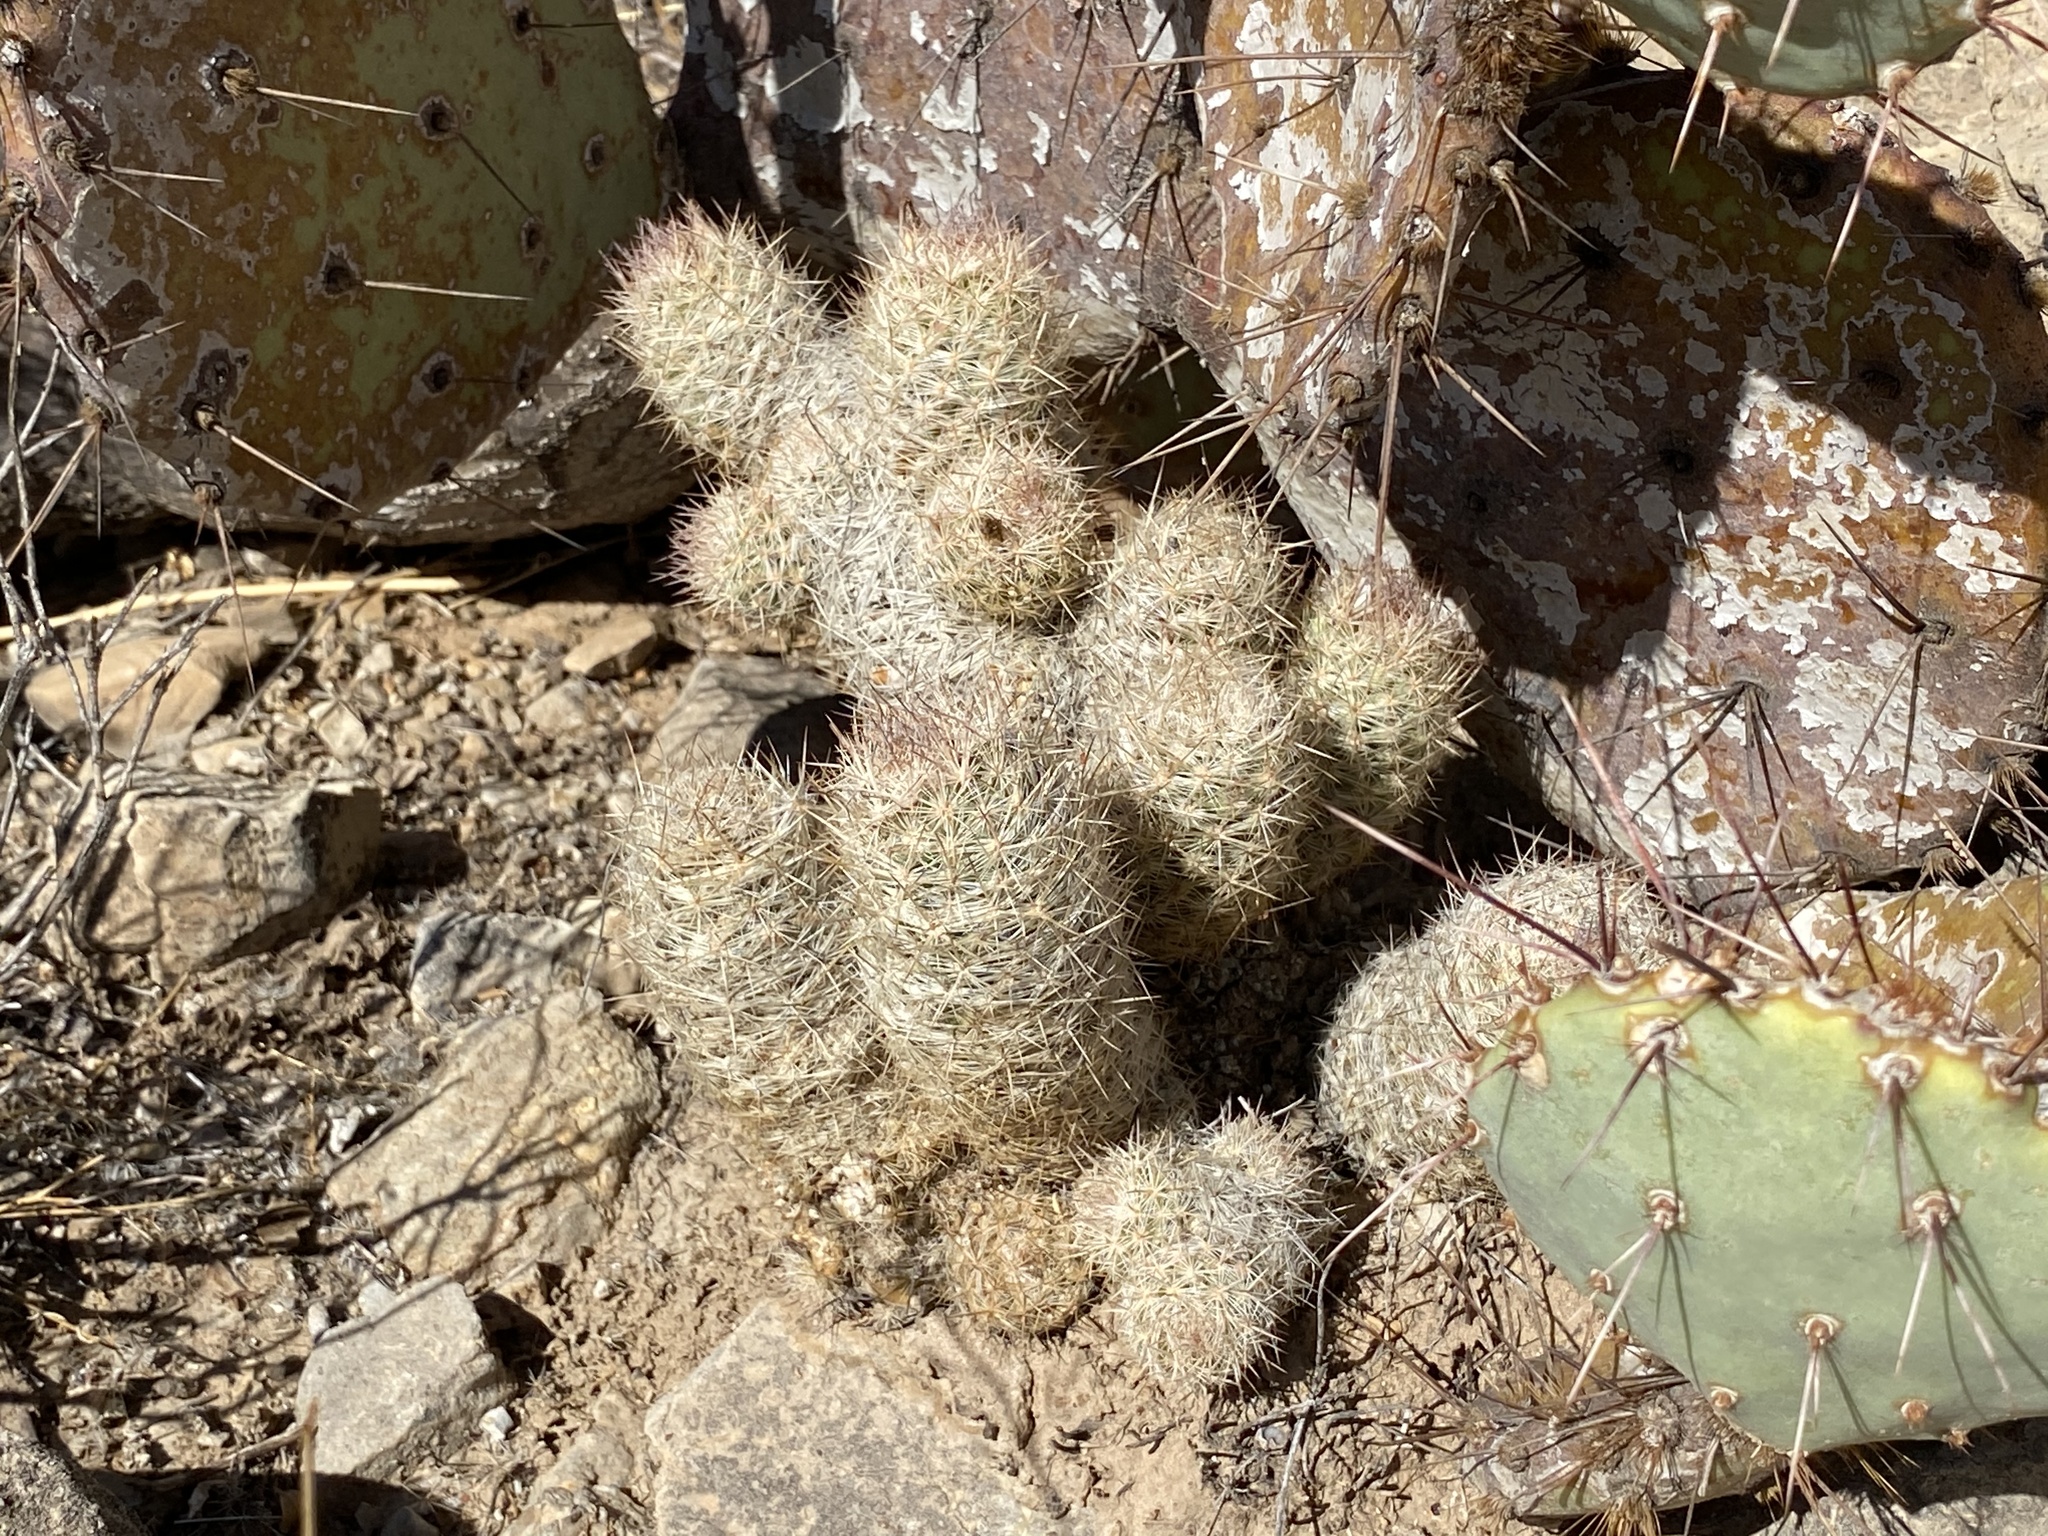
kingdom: Plantae
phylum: Tracheophyta
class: Magnoliopsida
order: Caryophyllales
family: Cactaceae
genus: Pelecyphora
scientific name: Pelecyphora tuberculosa
